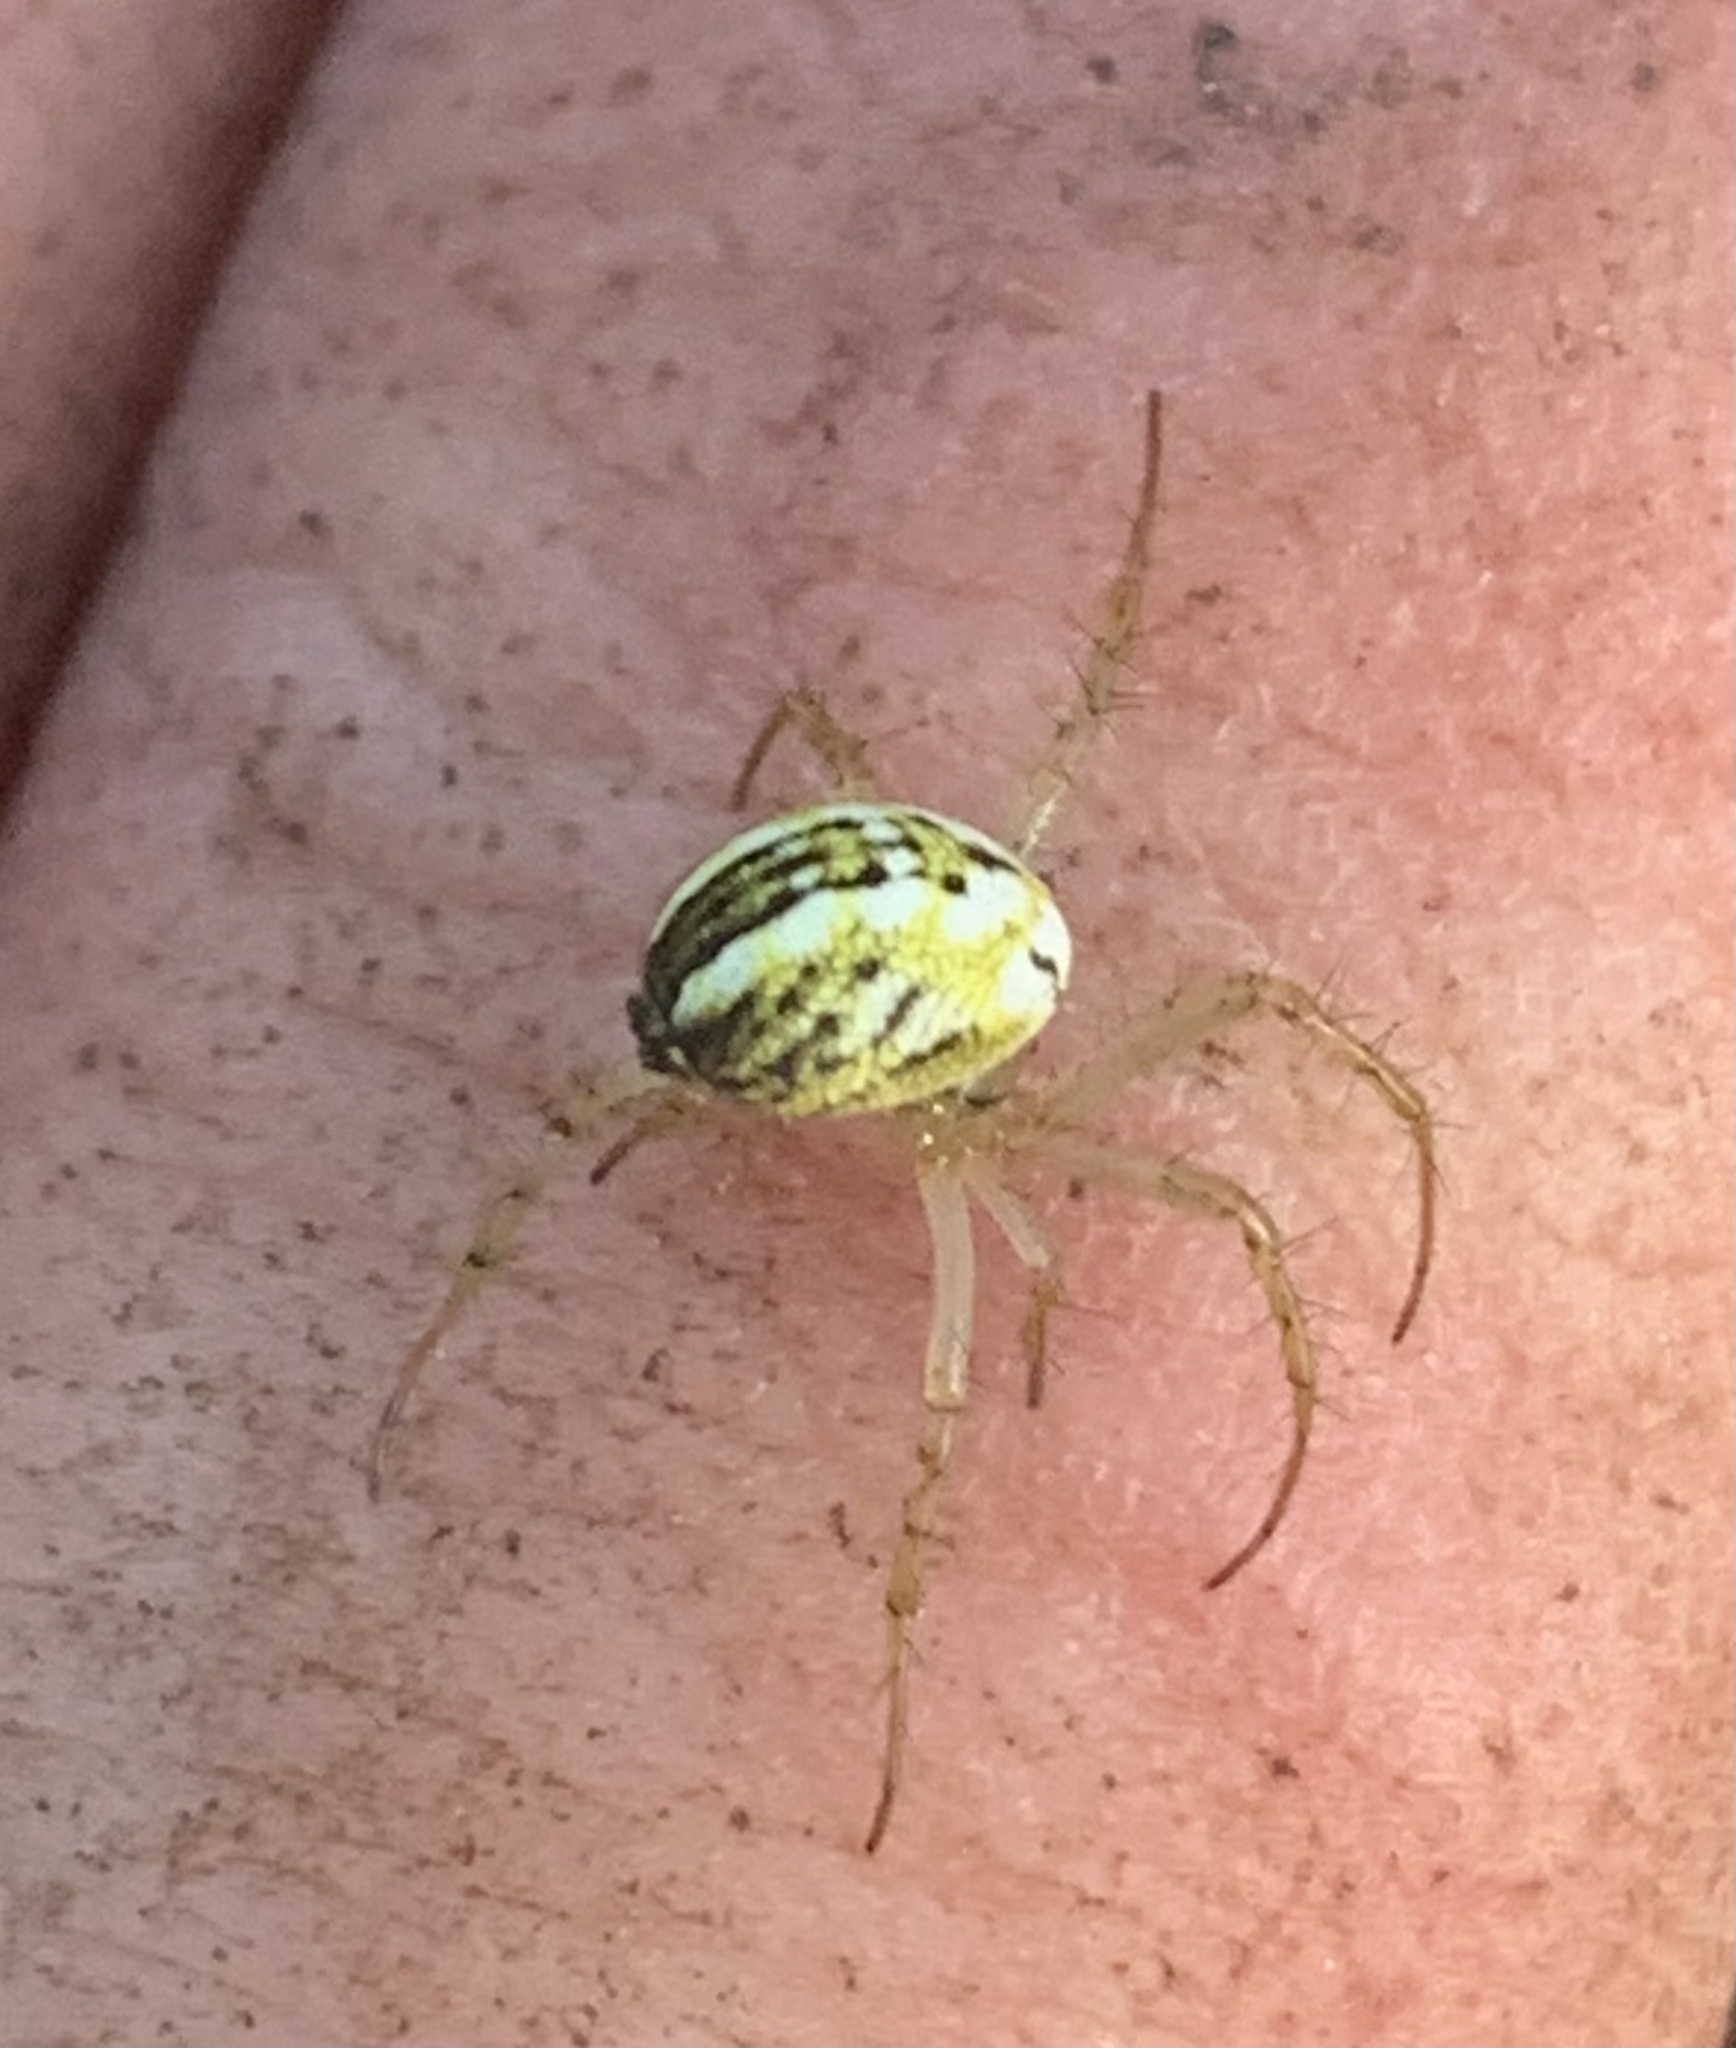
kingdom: Animalia
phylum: Arthropoda
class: Arachnida
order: Araneae
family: Araneidae
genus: Mangora
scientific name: Mangora acalypha
